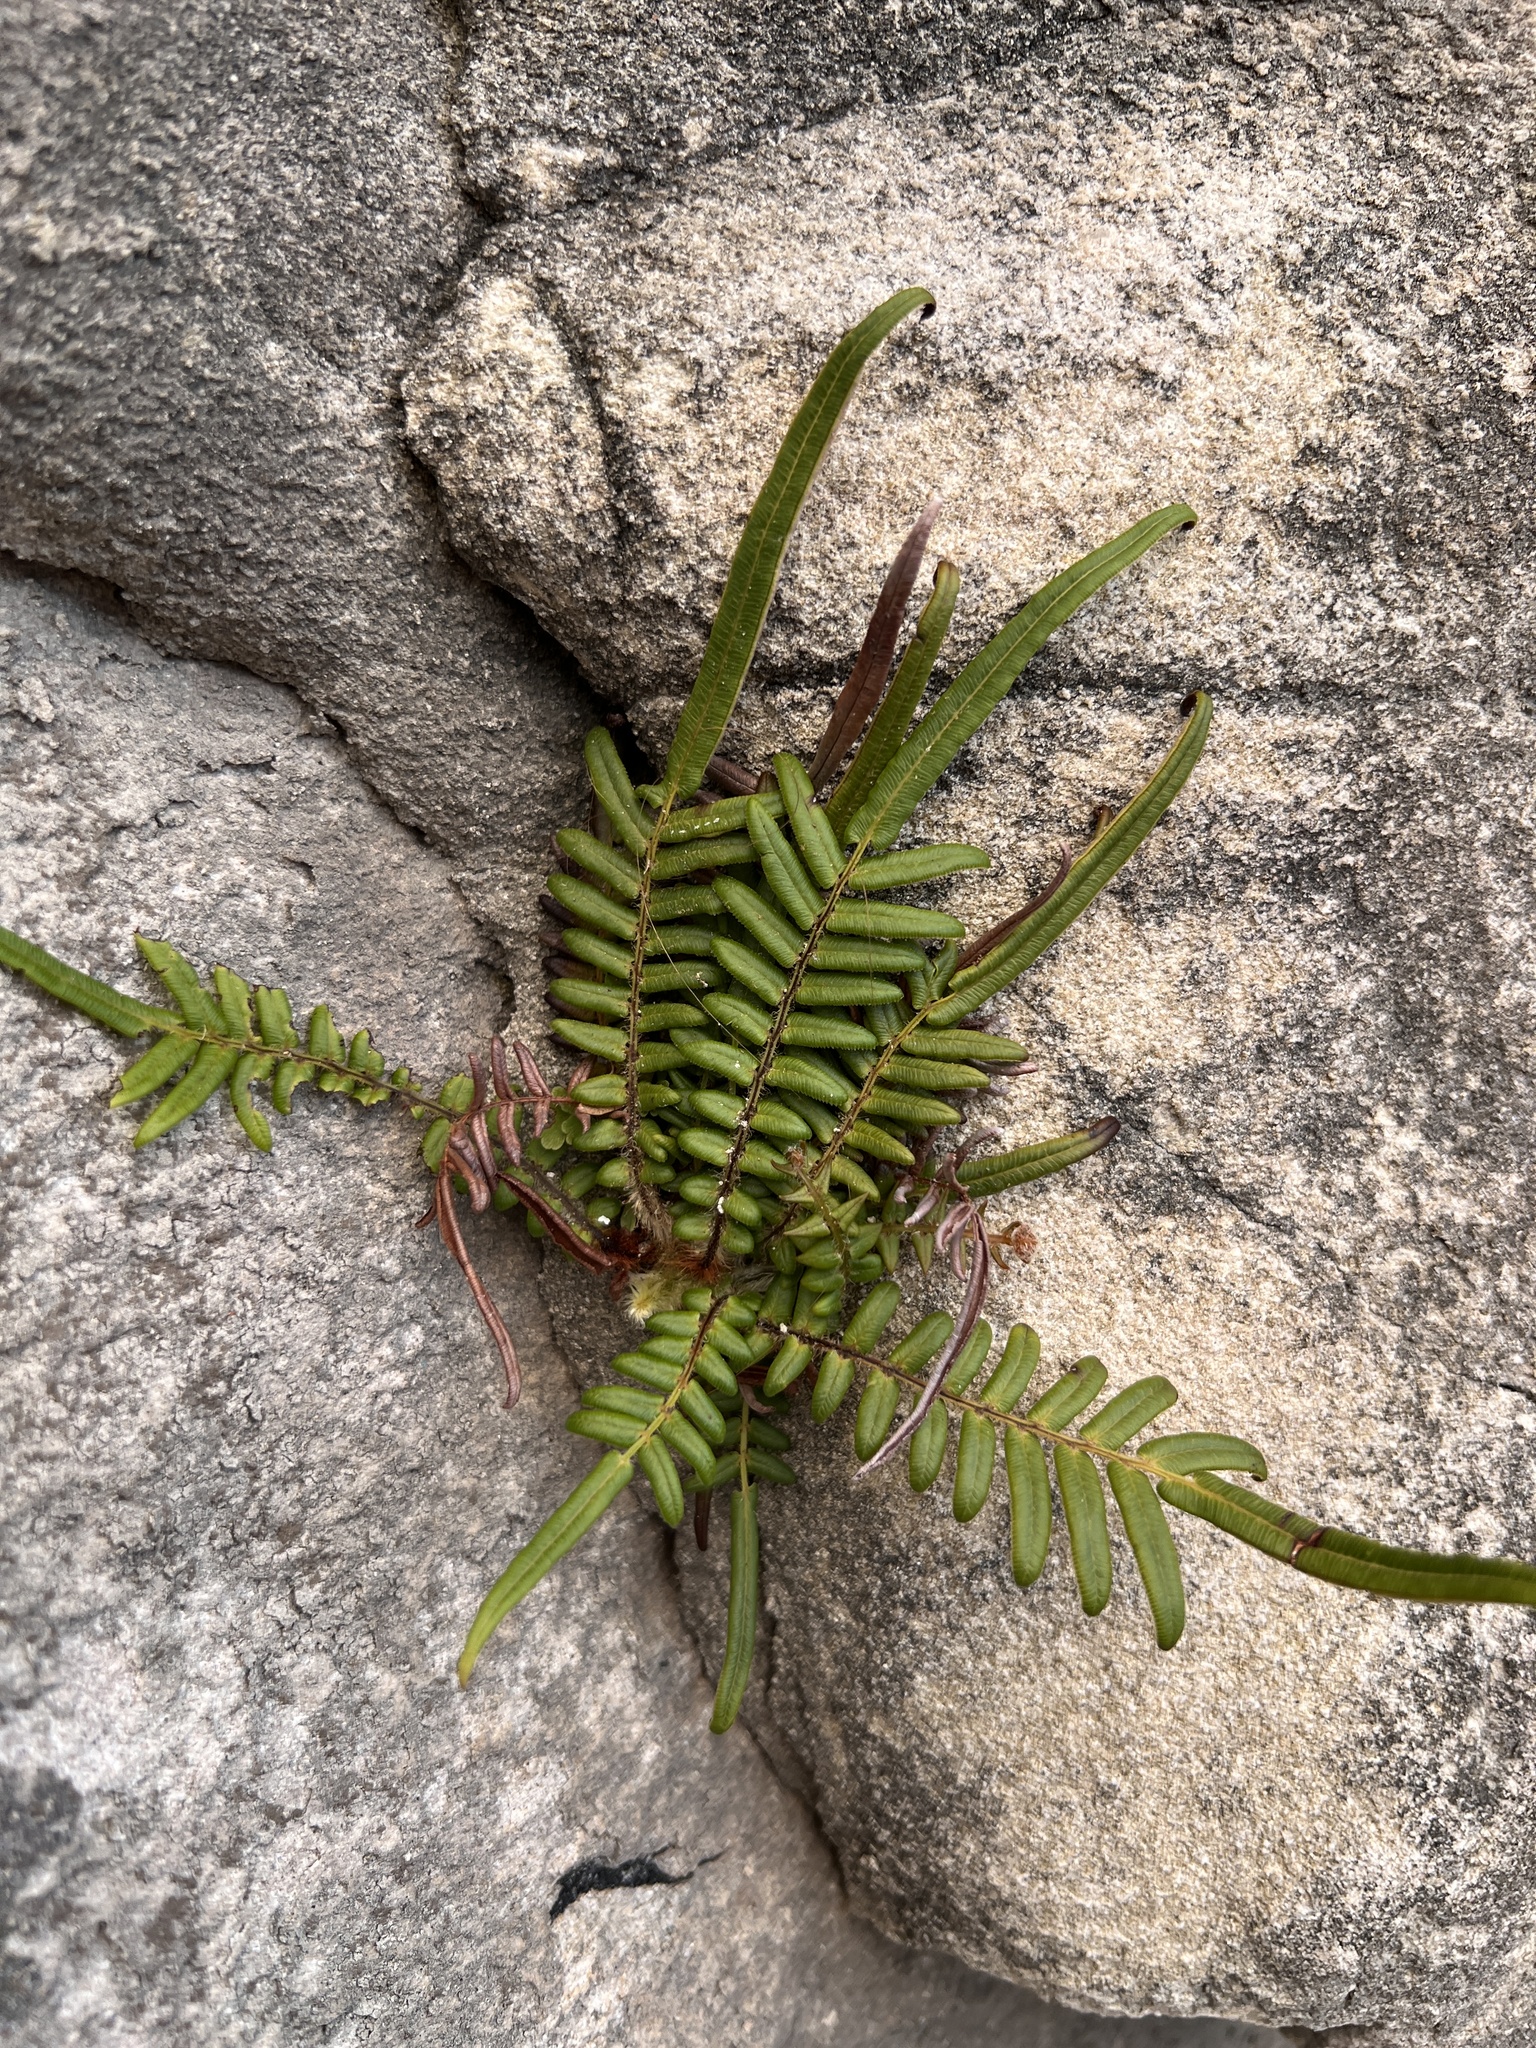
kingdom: Plantae
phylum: Tracheophyta
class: Polypodiopsida
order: Polypodiales
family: Pteridaceae
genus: Pteris
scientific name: Pteris vittata
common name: Ladder brake
